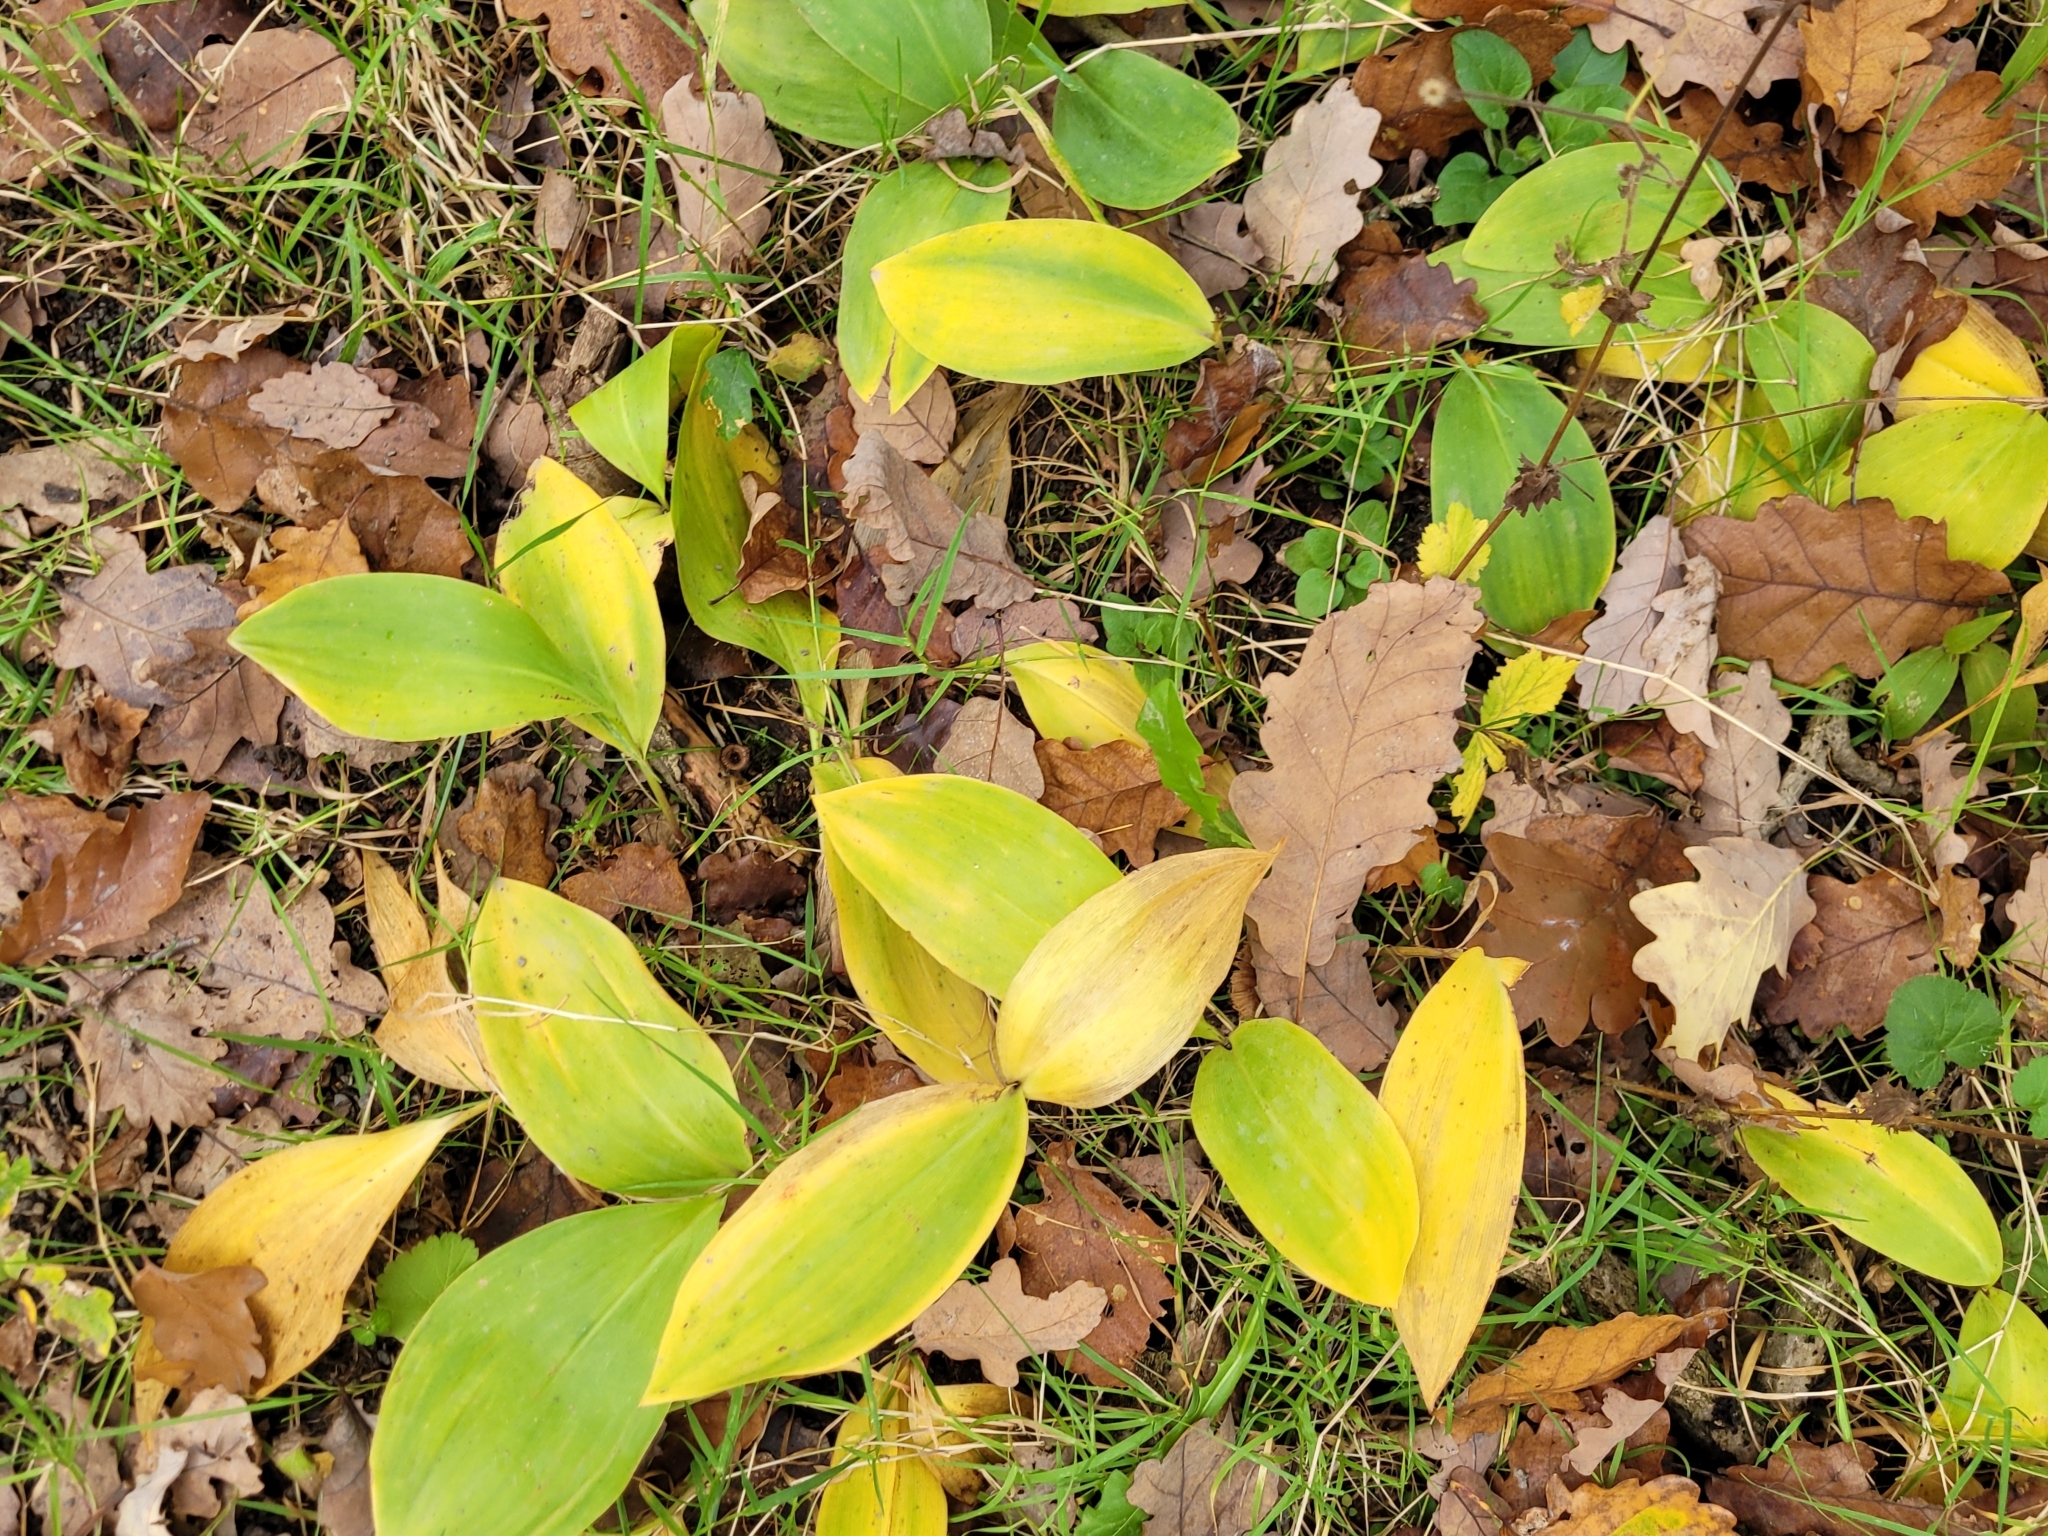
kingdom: Plantae
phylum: Tracheophyta
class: Liliopsida
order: Asparagales
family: Asparagaceae
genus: Convallaria
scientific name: Convallaria majalis
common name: Lily-of-the-valley
